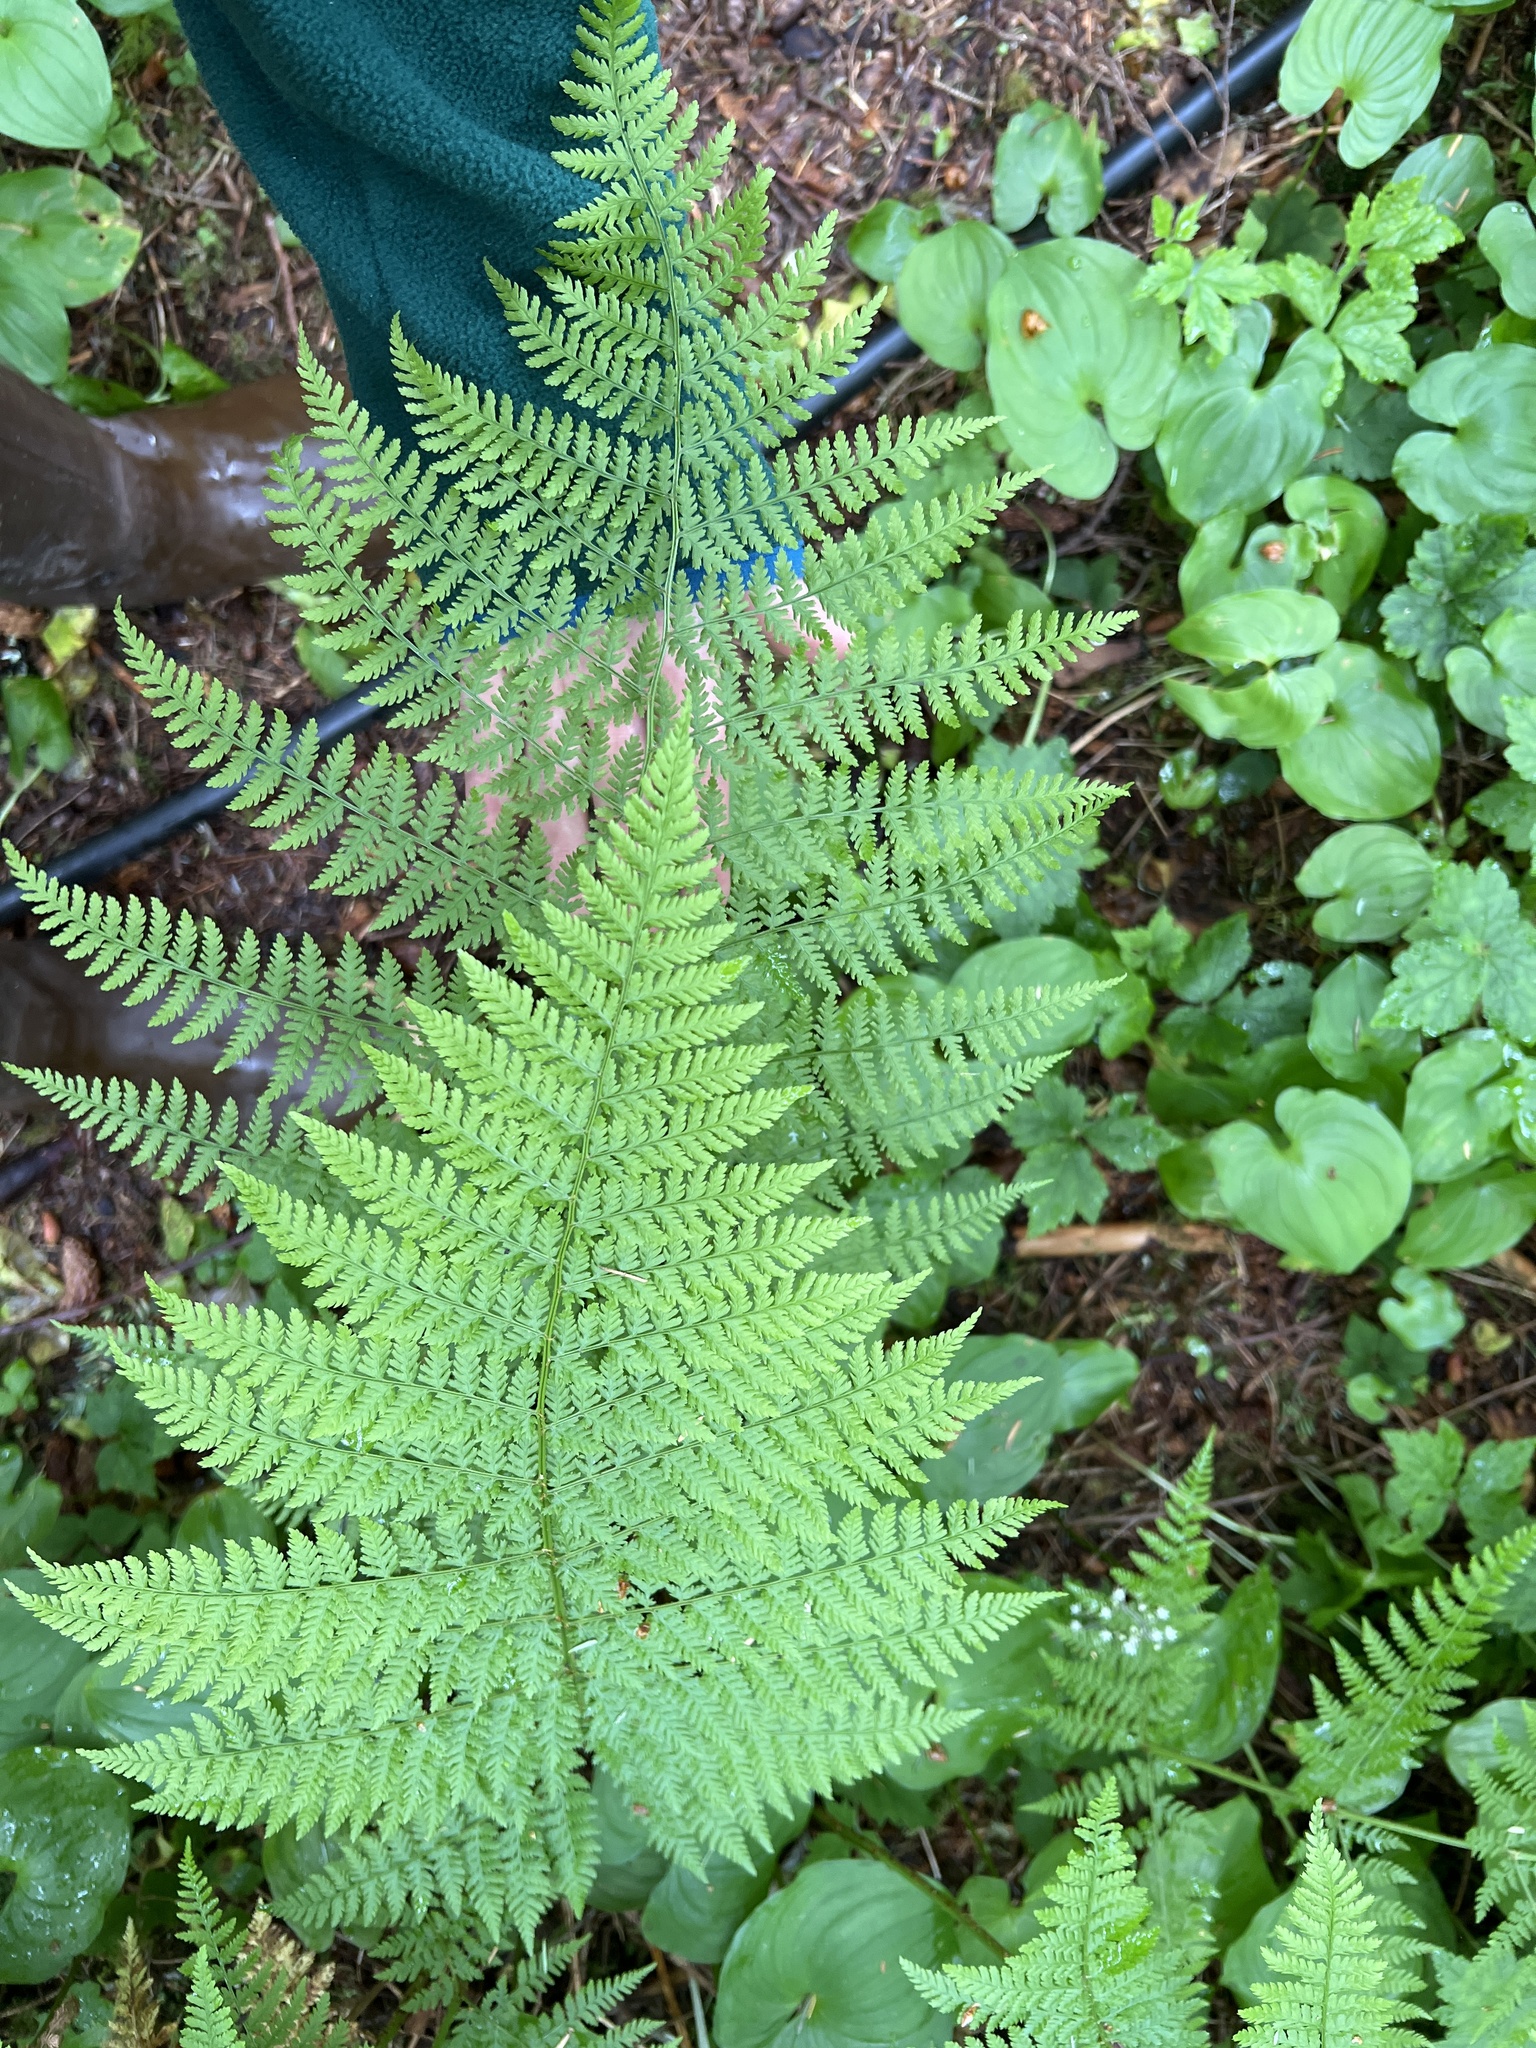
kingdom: Plantae
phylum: Tracheophyta
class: Polypodiopsida
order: Polypodiales
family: Dryopteridaceae
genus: Dryopteris
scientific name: Dryopteris expansa
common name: Northern buckler fern
